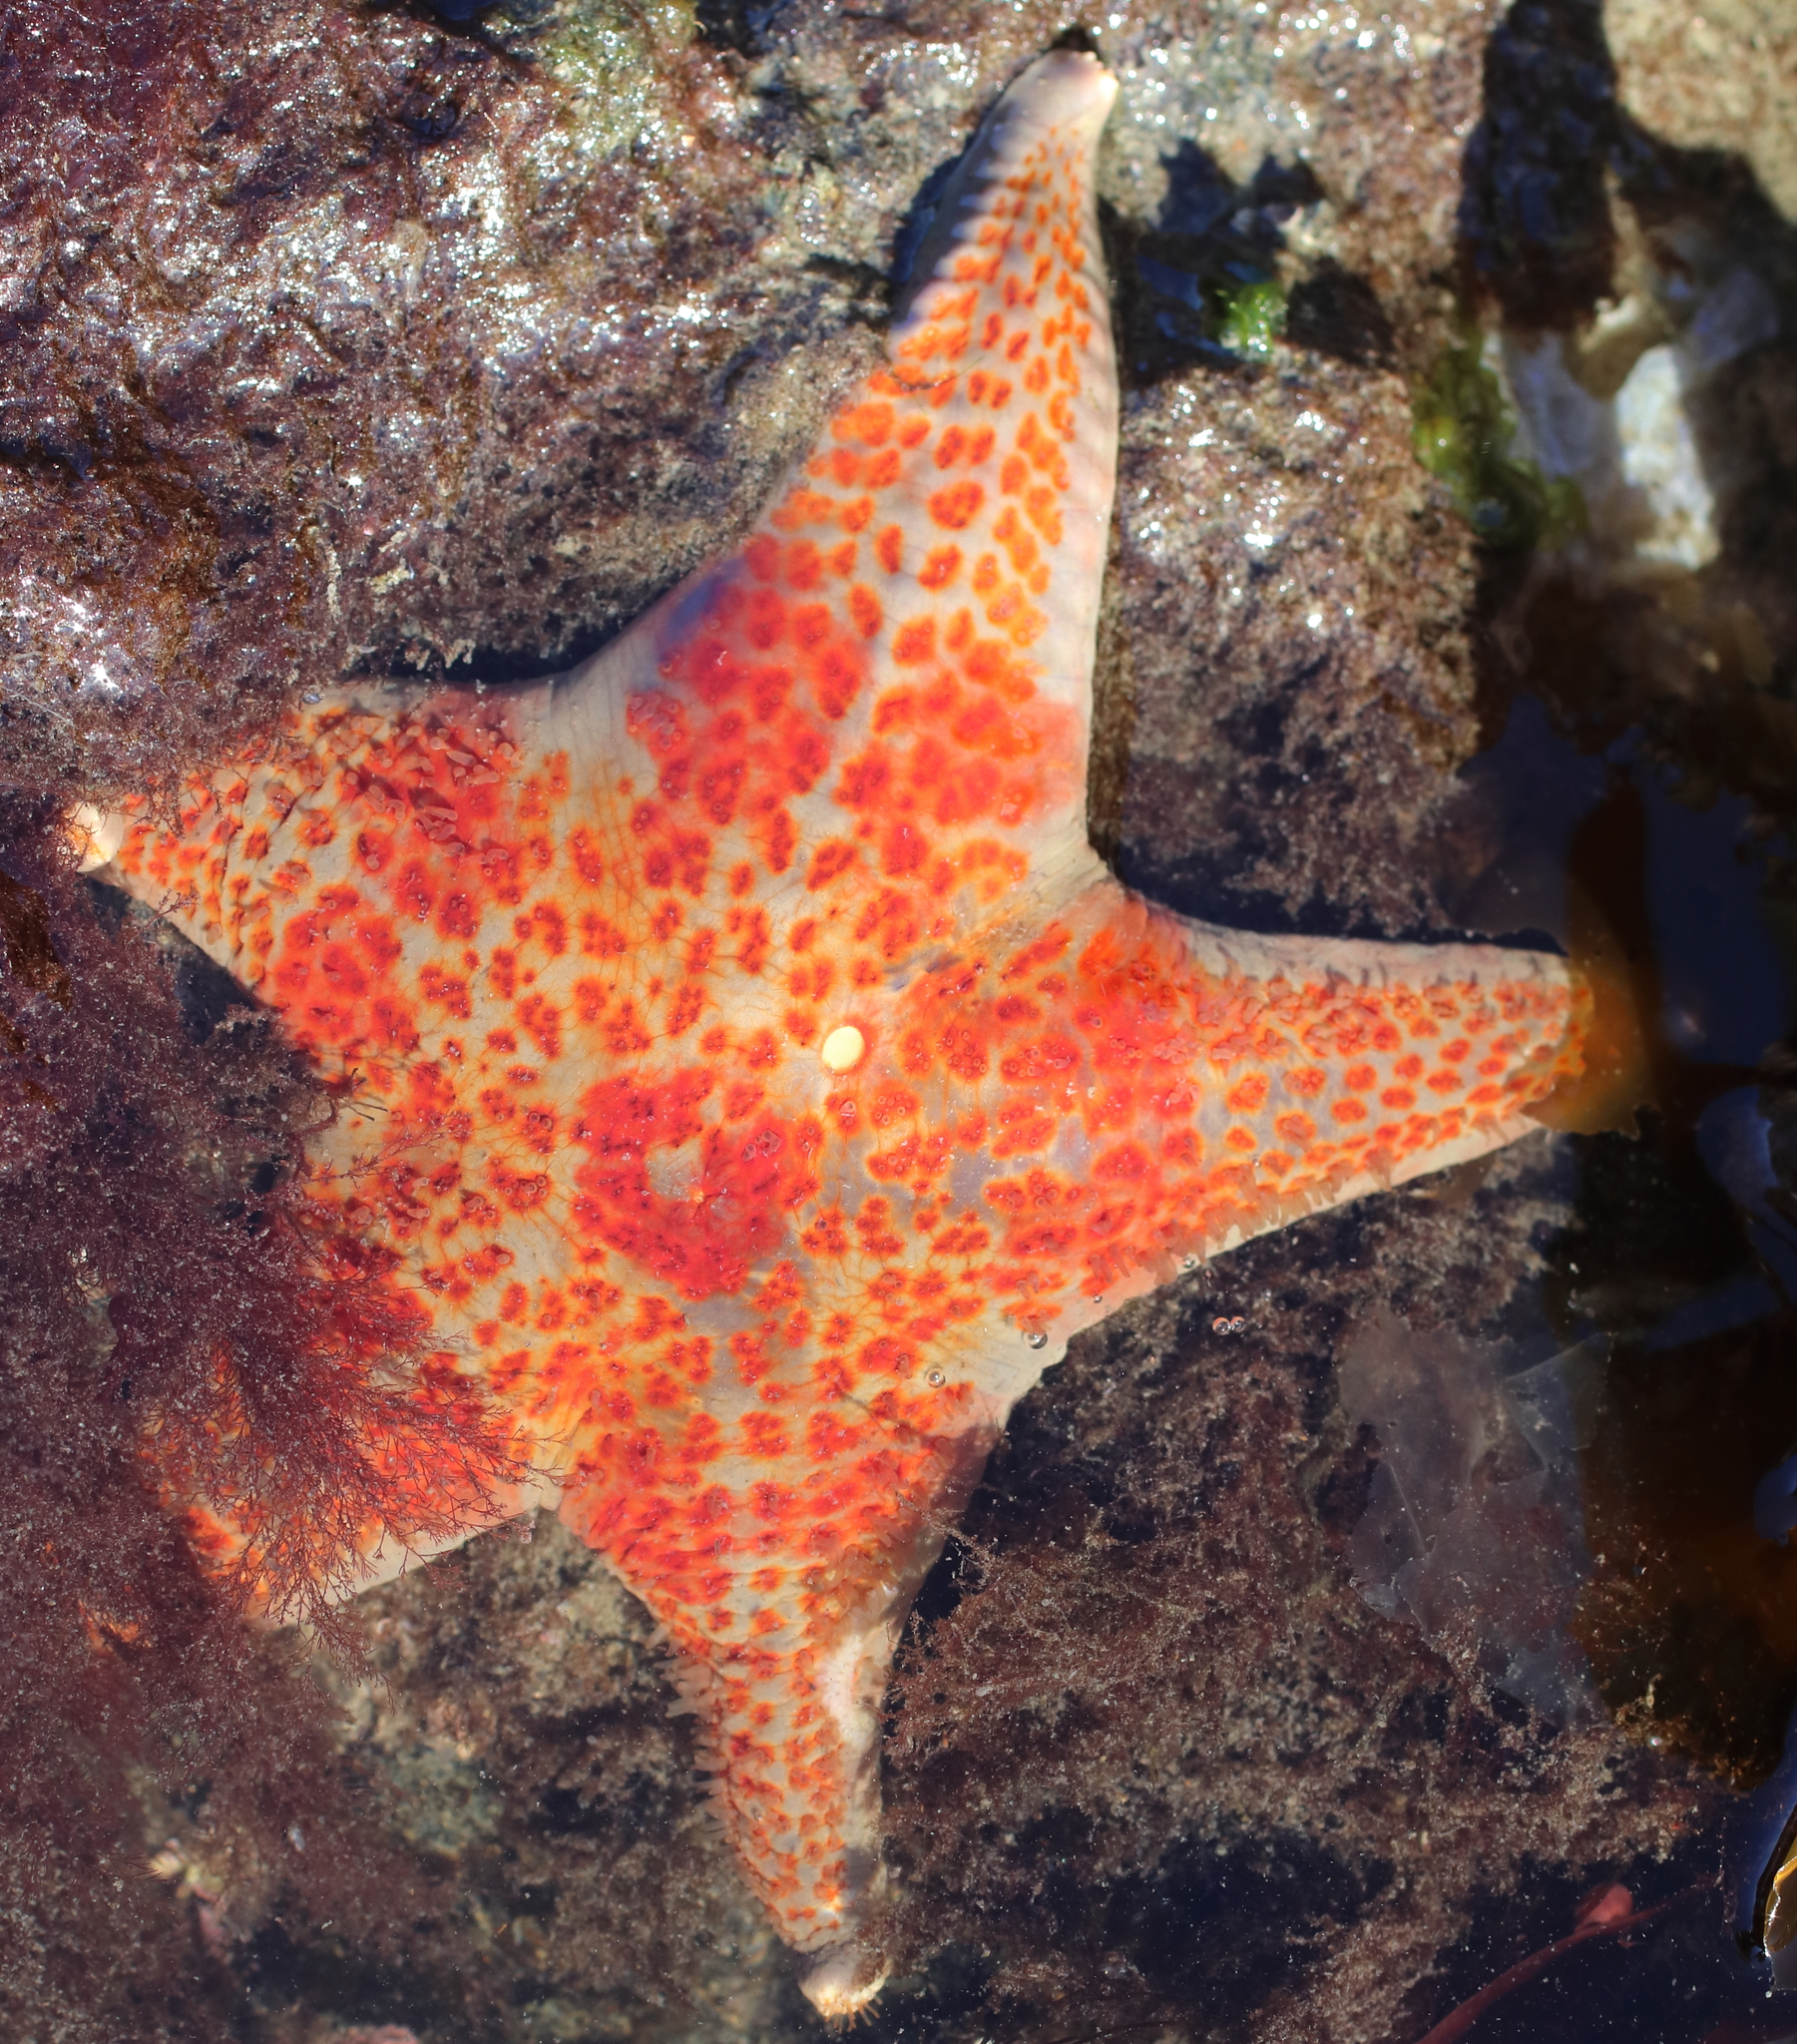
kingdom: Animalia
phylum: Echinodermata
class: Asteroidea
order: Valvatida
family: Asteropseidae
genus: Dermasterias
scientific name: Dermasterias imbricata
